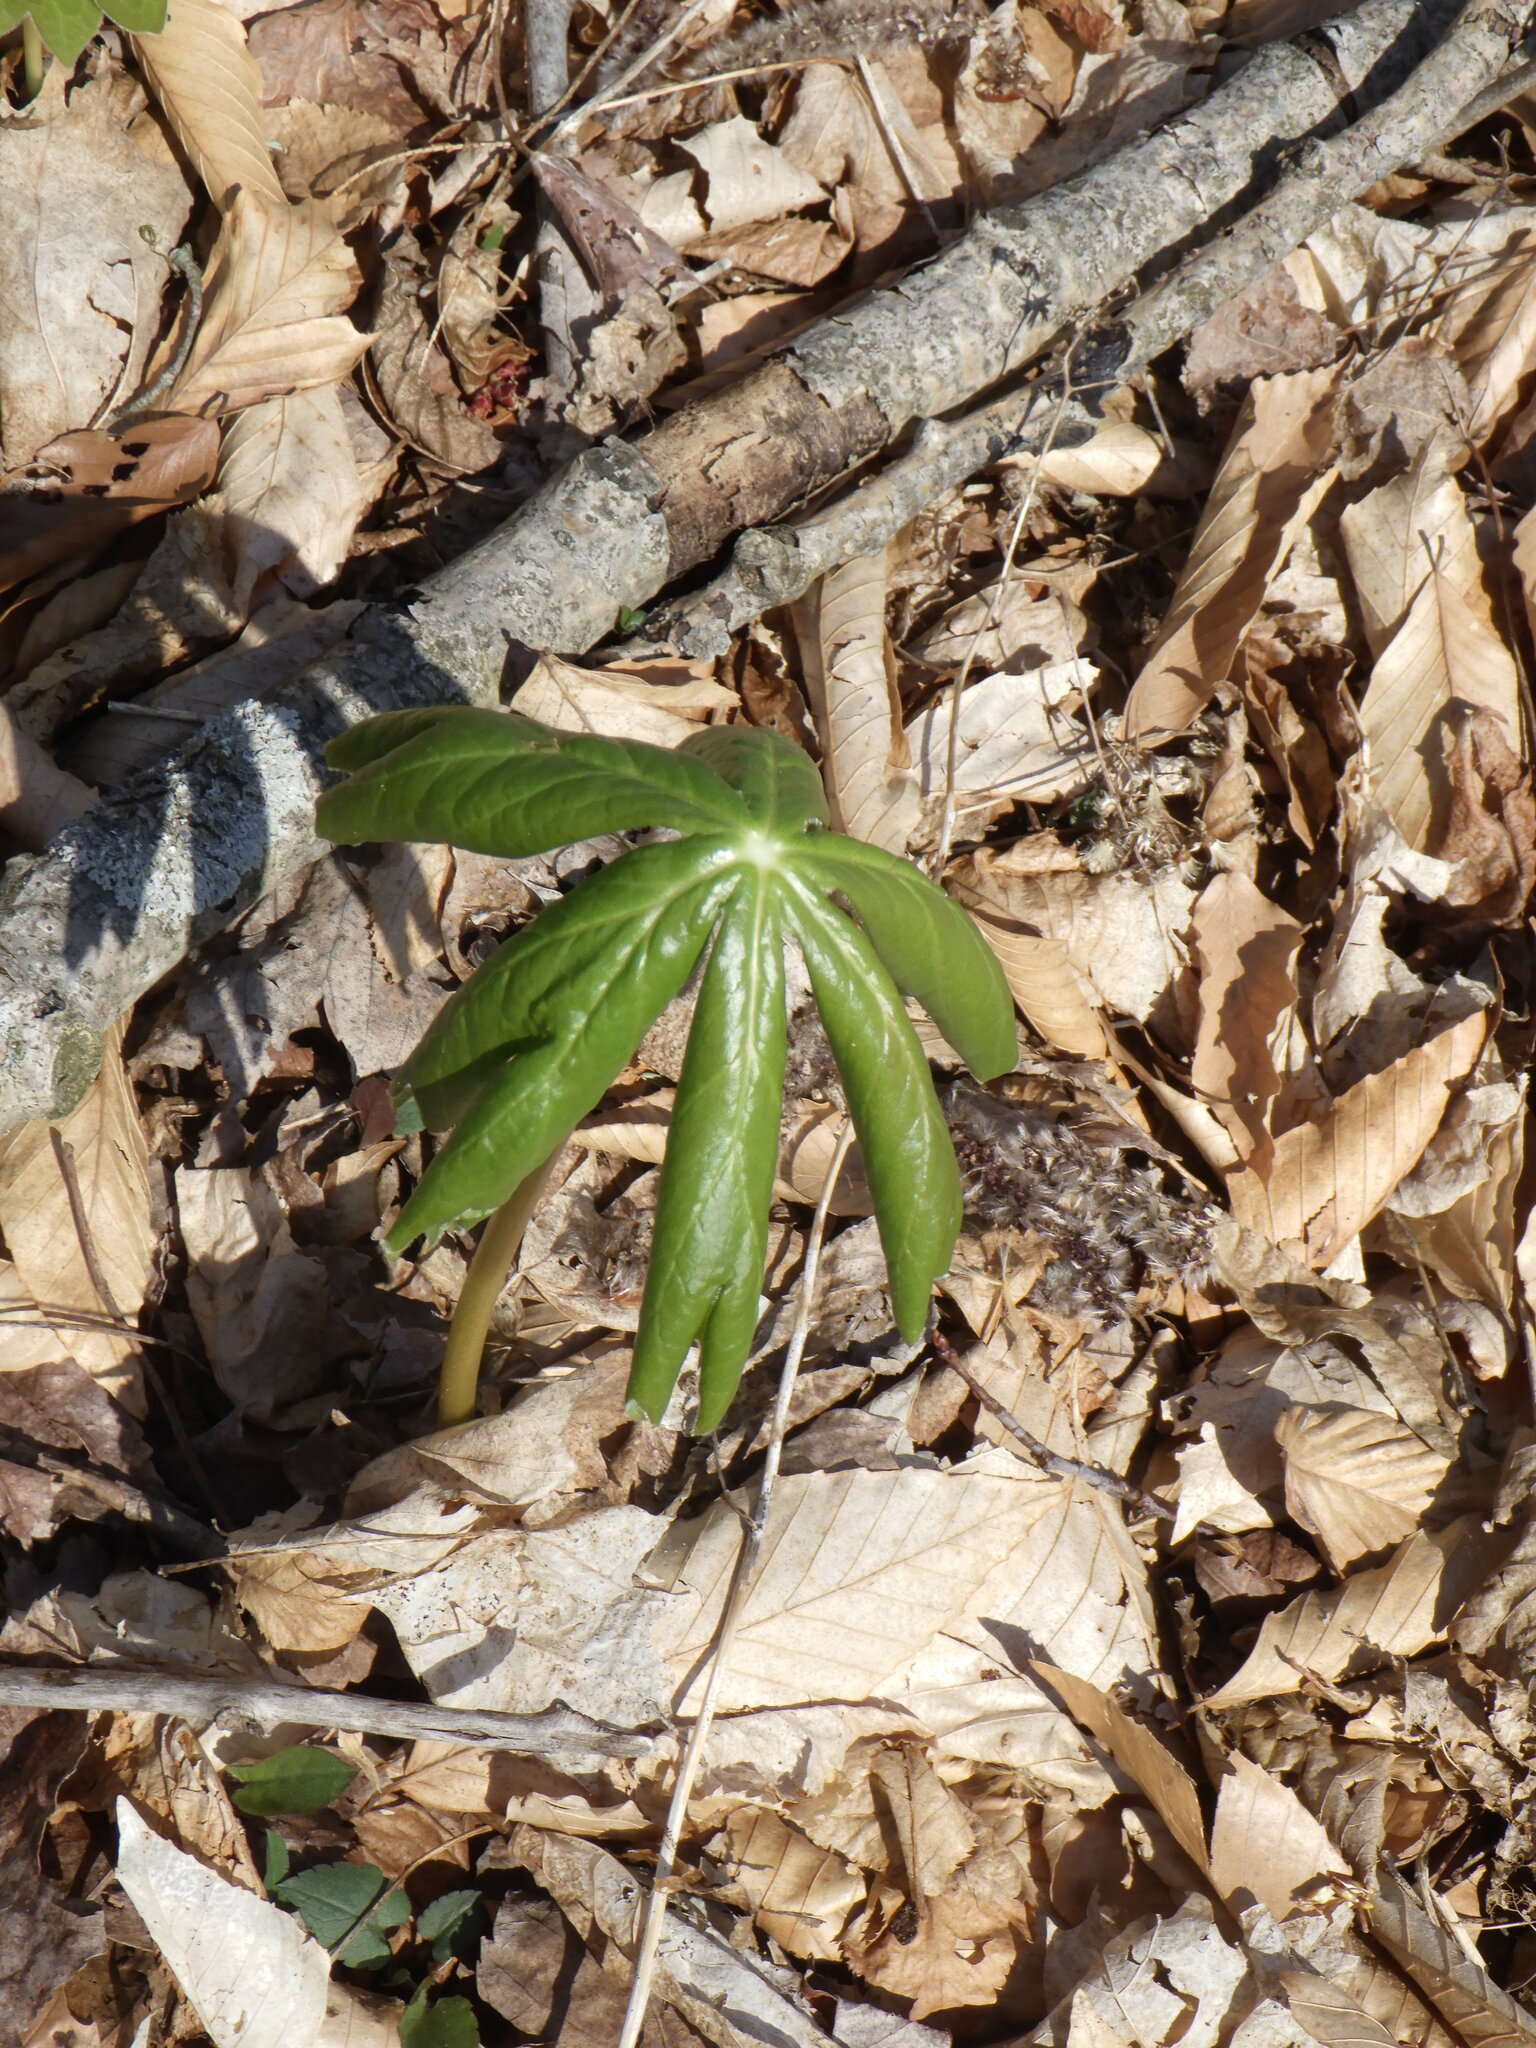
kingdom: Plantae
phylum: Tracheophyta
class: Magnoliopsida
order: Ranunculales
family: Berberidaceae
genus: Podophyllum
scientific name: Podophyllum peltatum
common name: Wild mandrake
